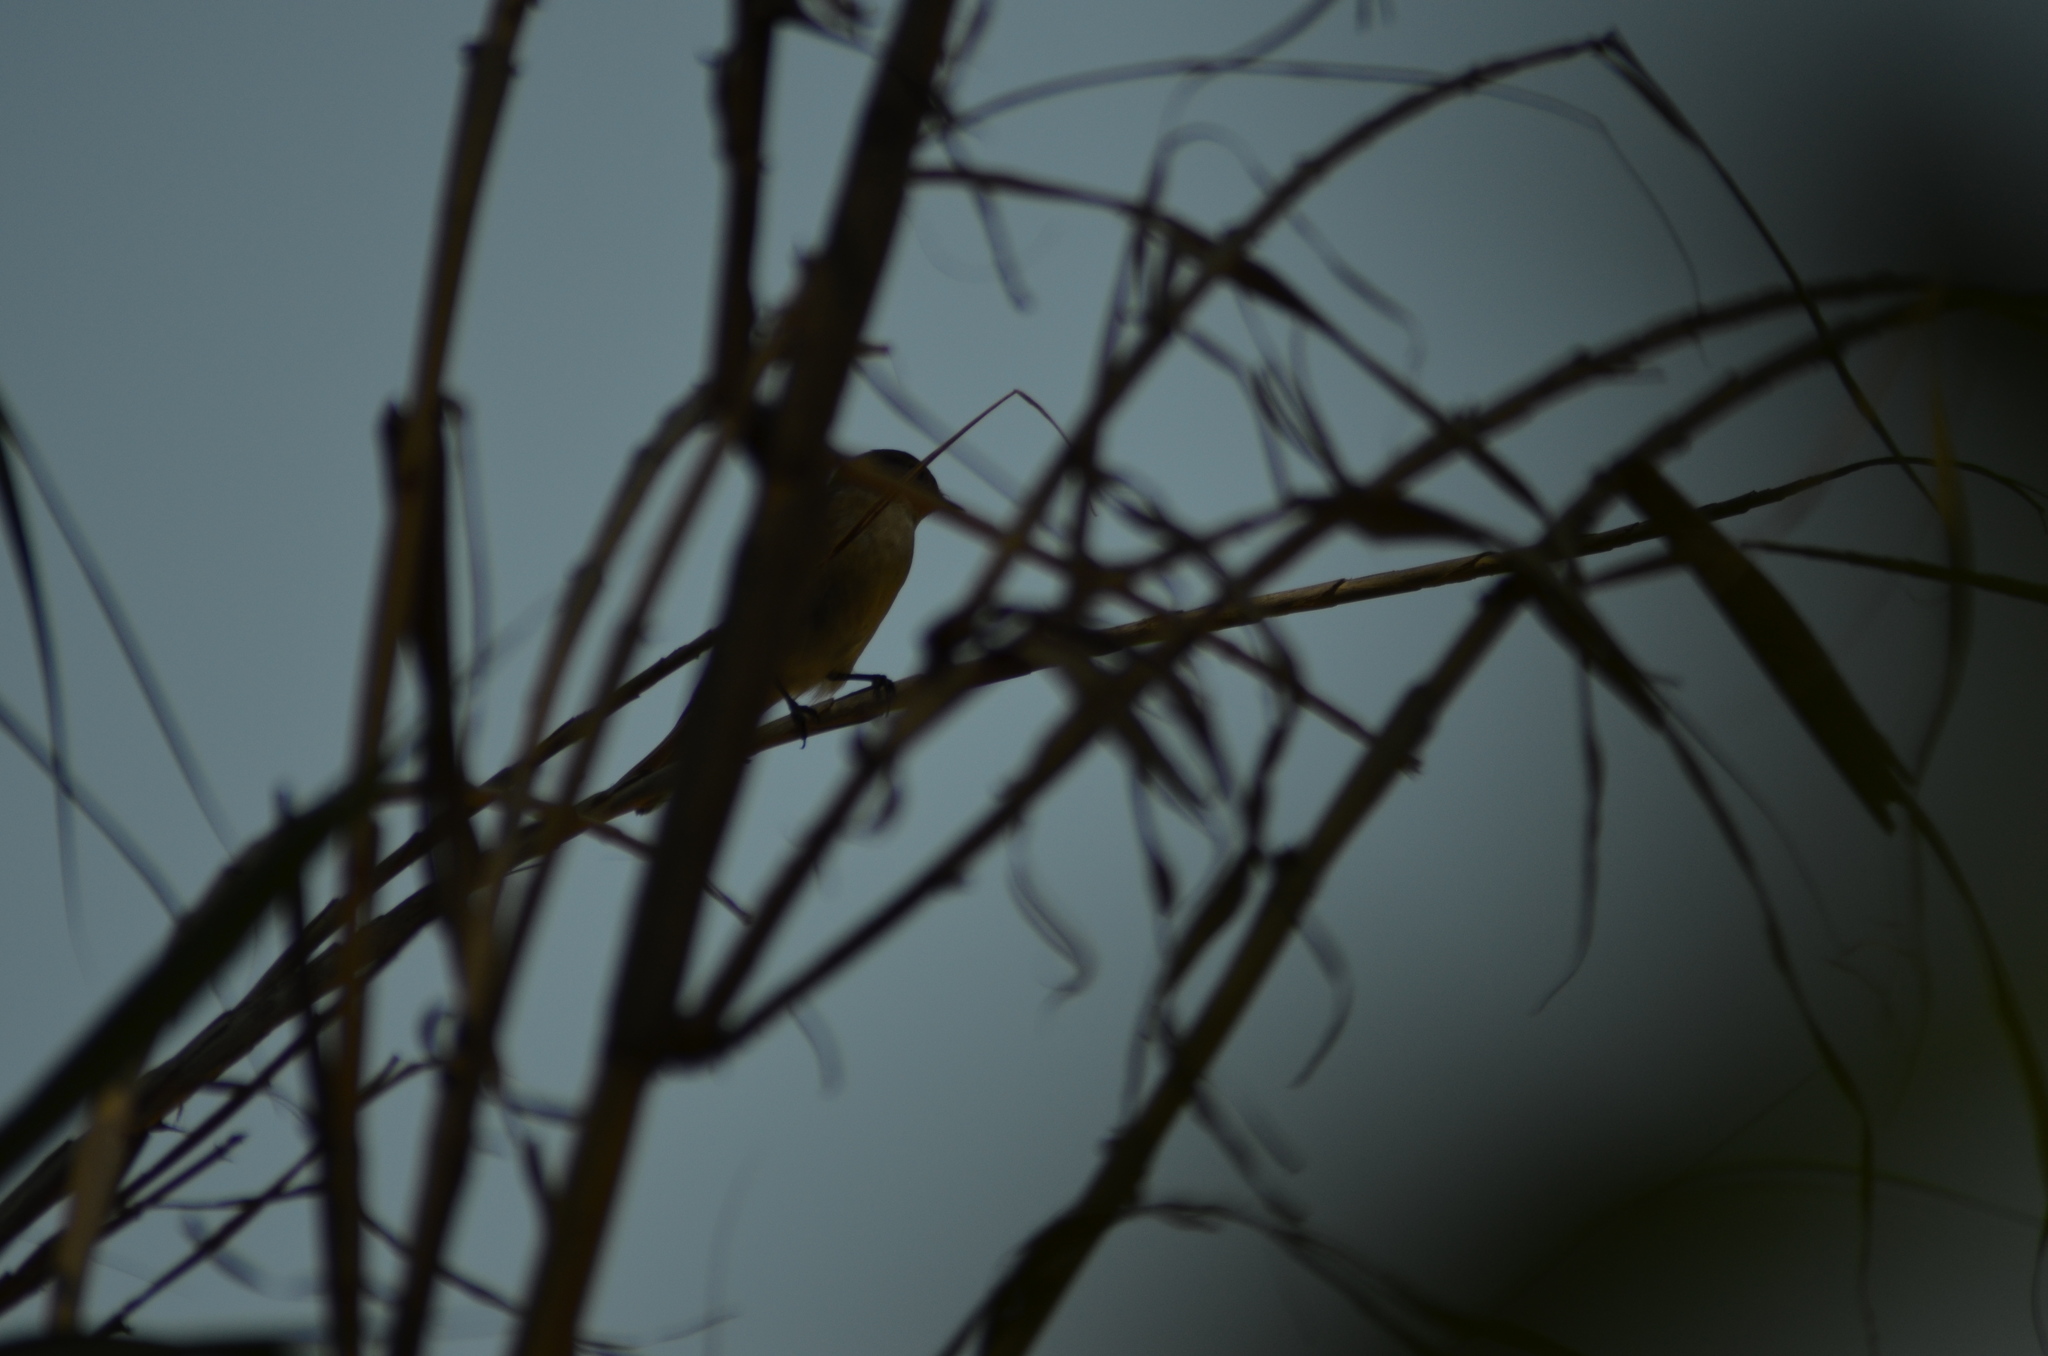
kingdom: Animalia
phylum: Chordata
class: Aves
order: Passeriformes
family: Muscicapidae
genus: Ficedula
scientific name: Ficedula hypoleuca
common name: European pied flycatcher
